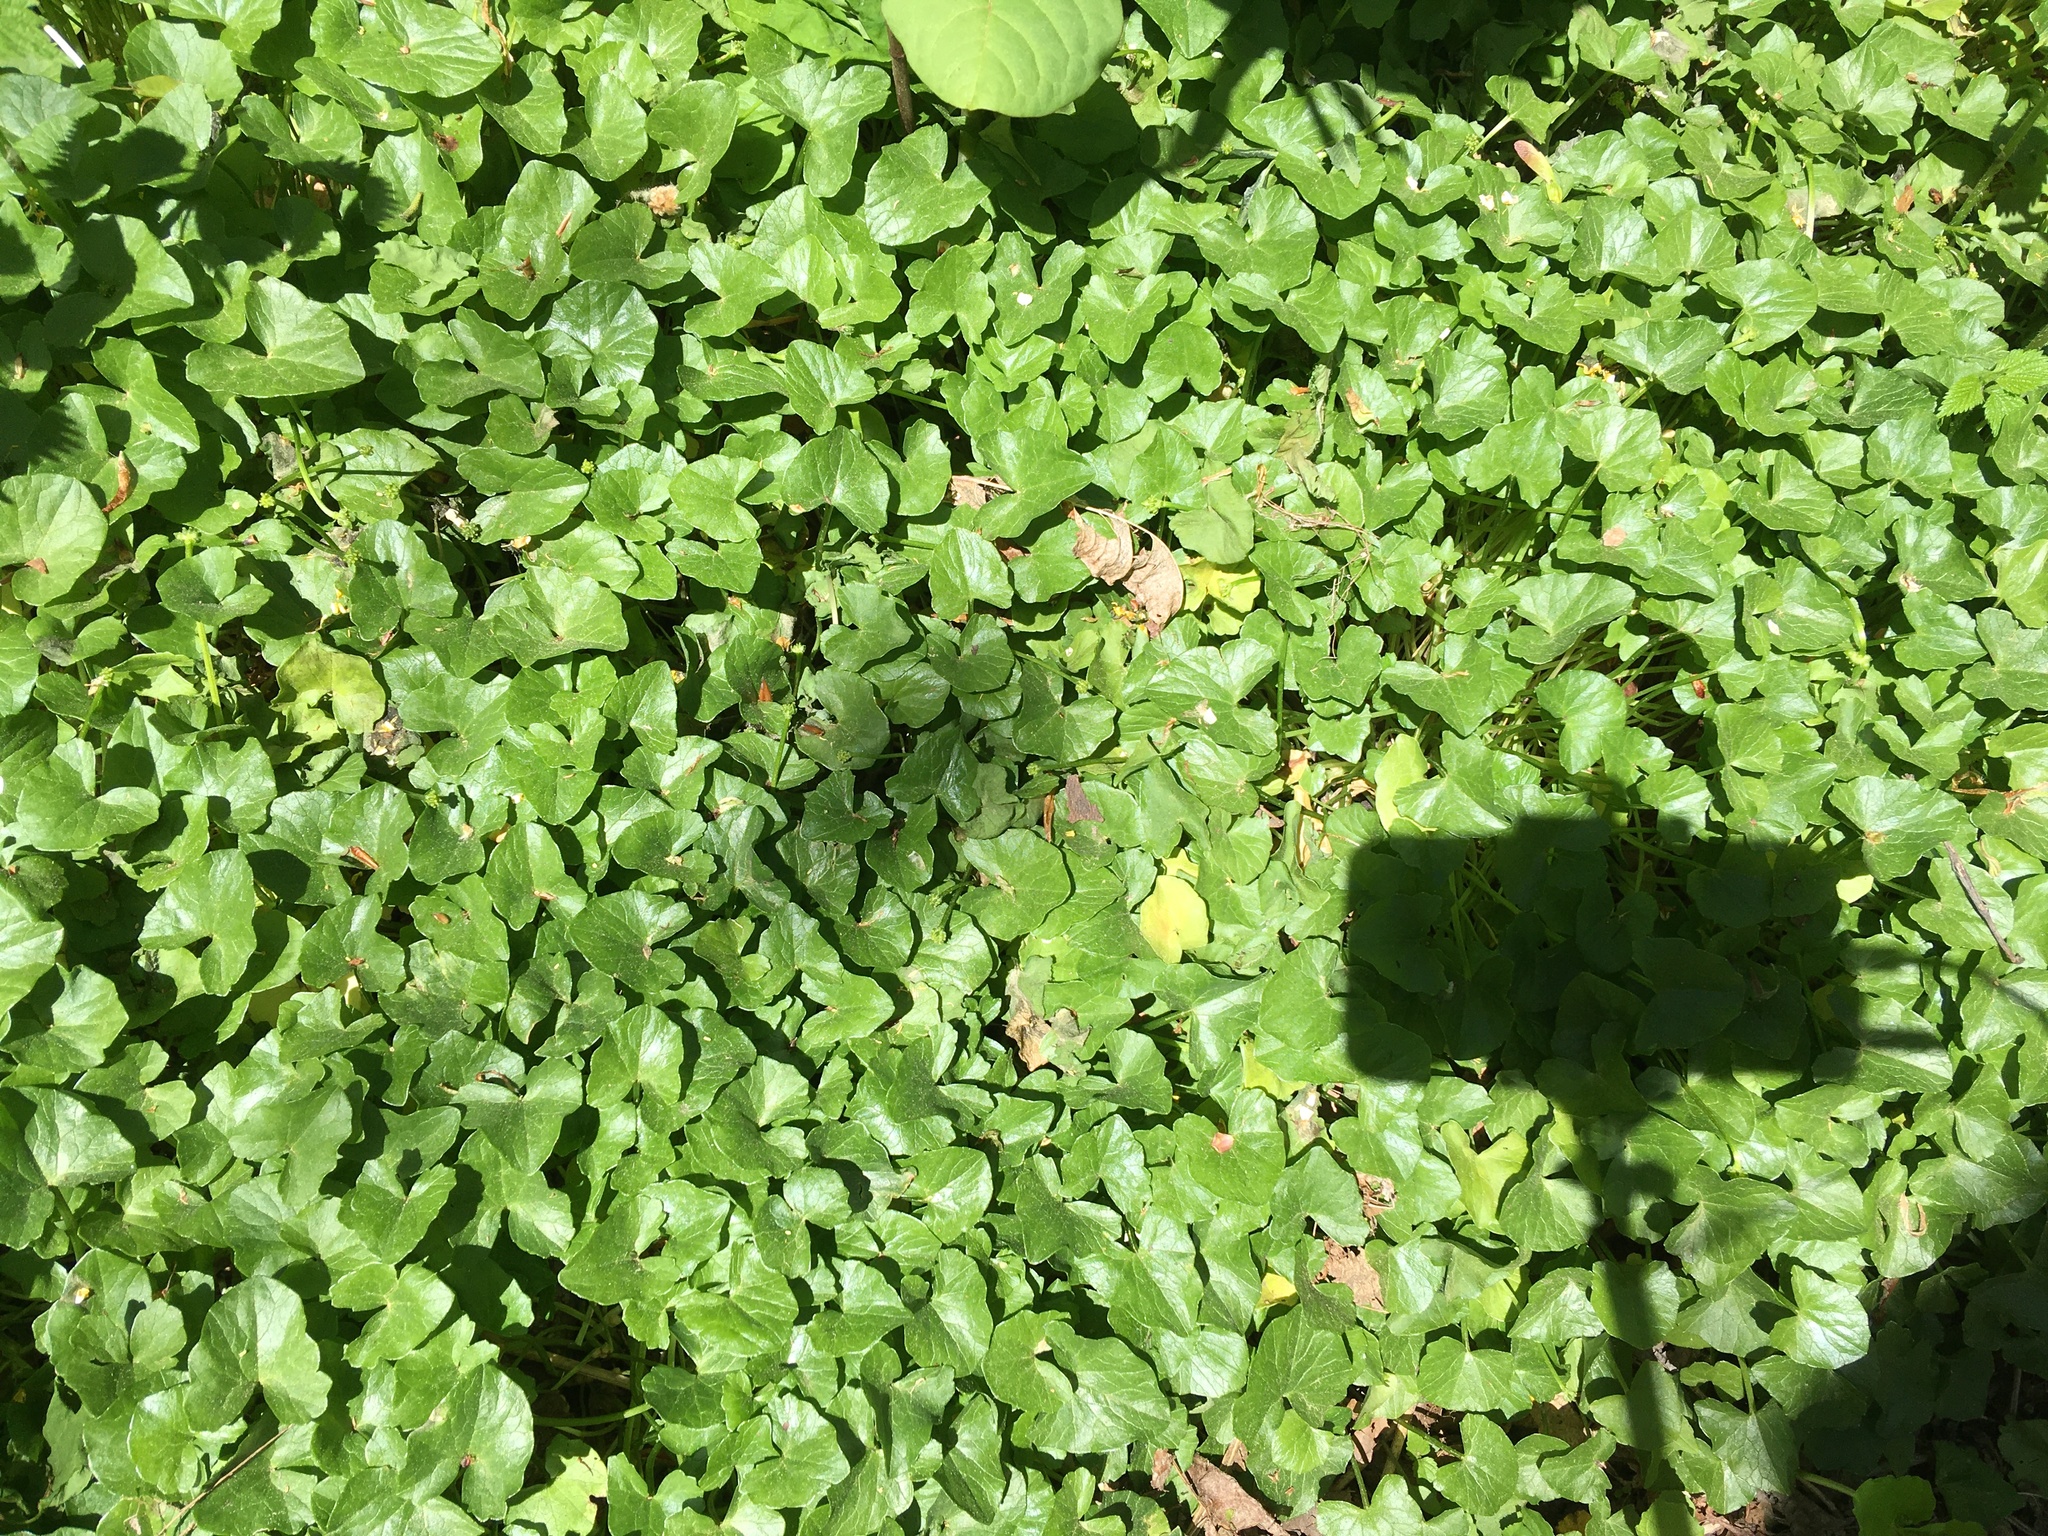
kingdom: Plantae
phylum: Tracheophyta
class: Magnoliopsida
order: Ranunculales
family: Ranunculaceae
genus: Ficaria
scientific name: Ficaria verna
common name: Lesser celandine
